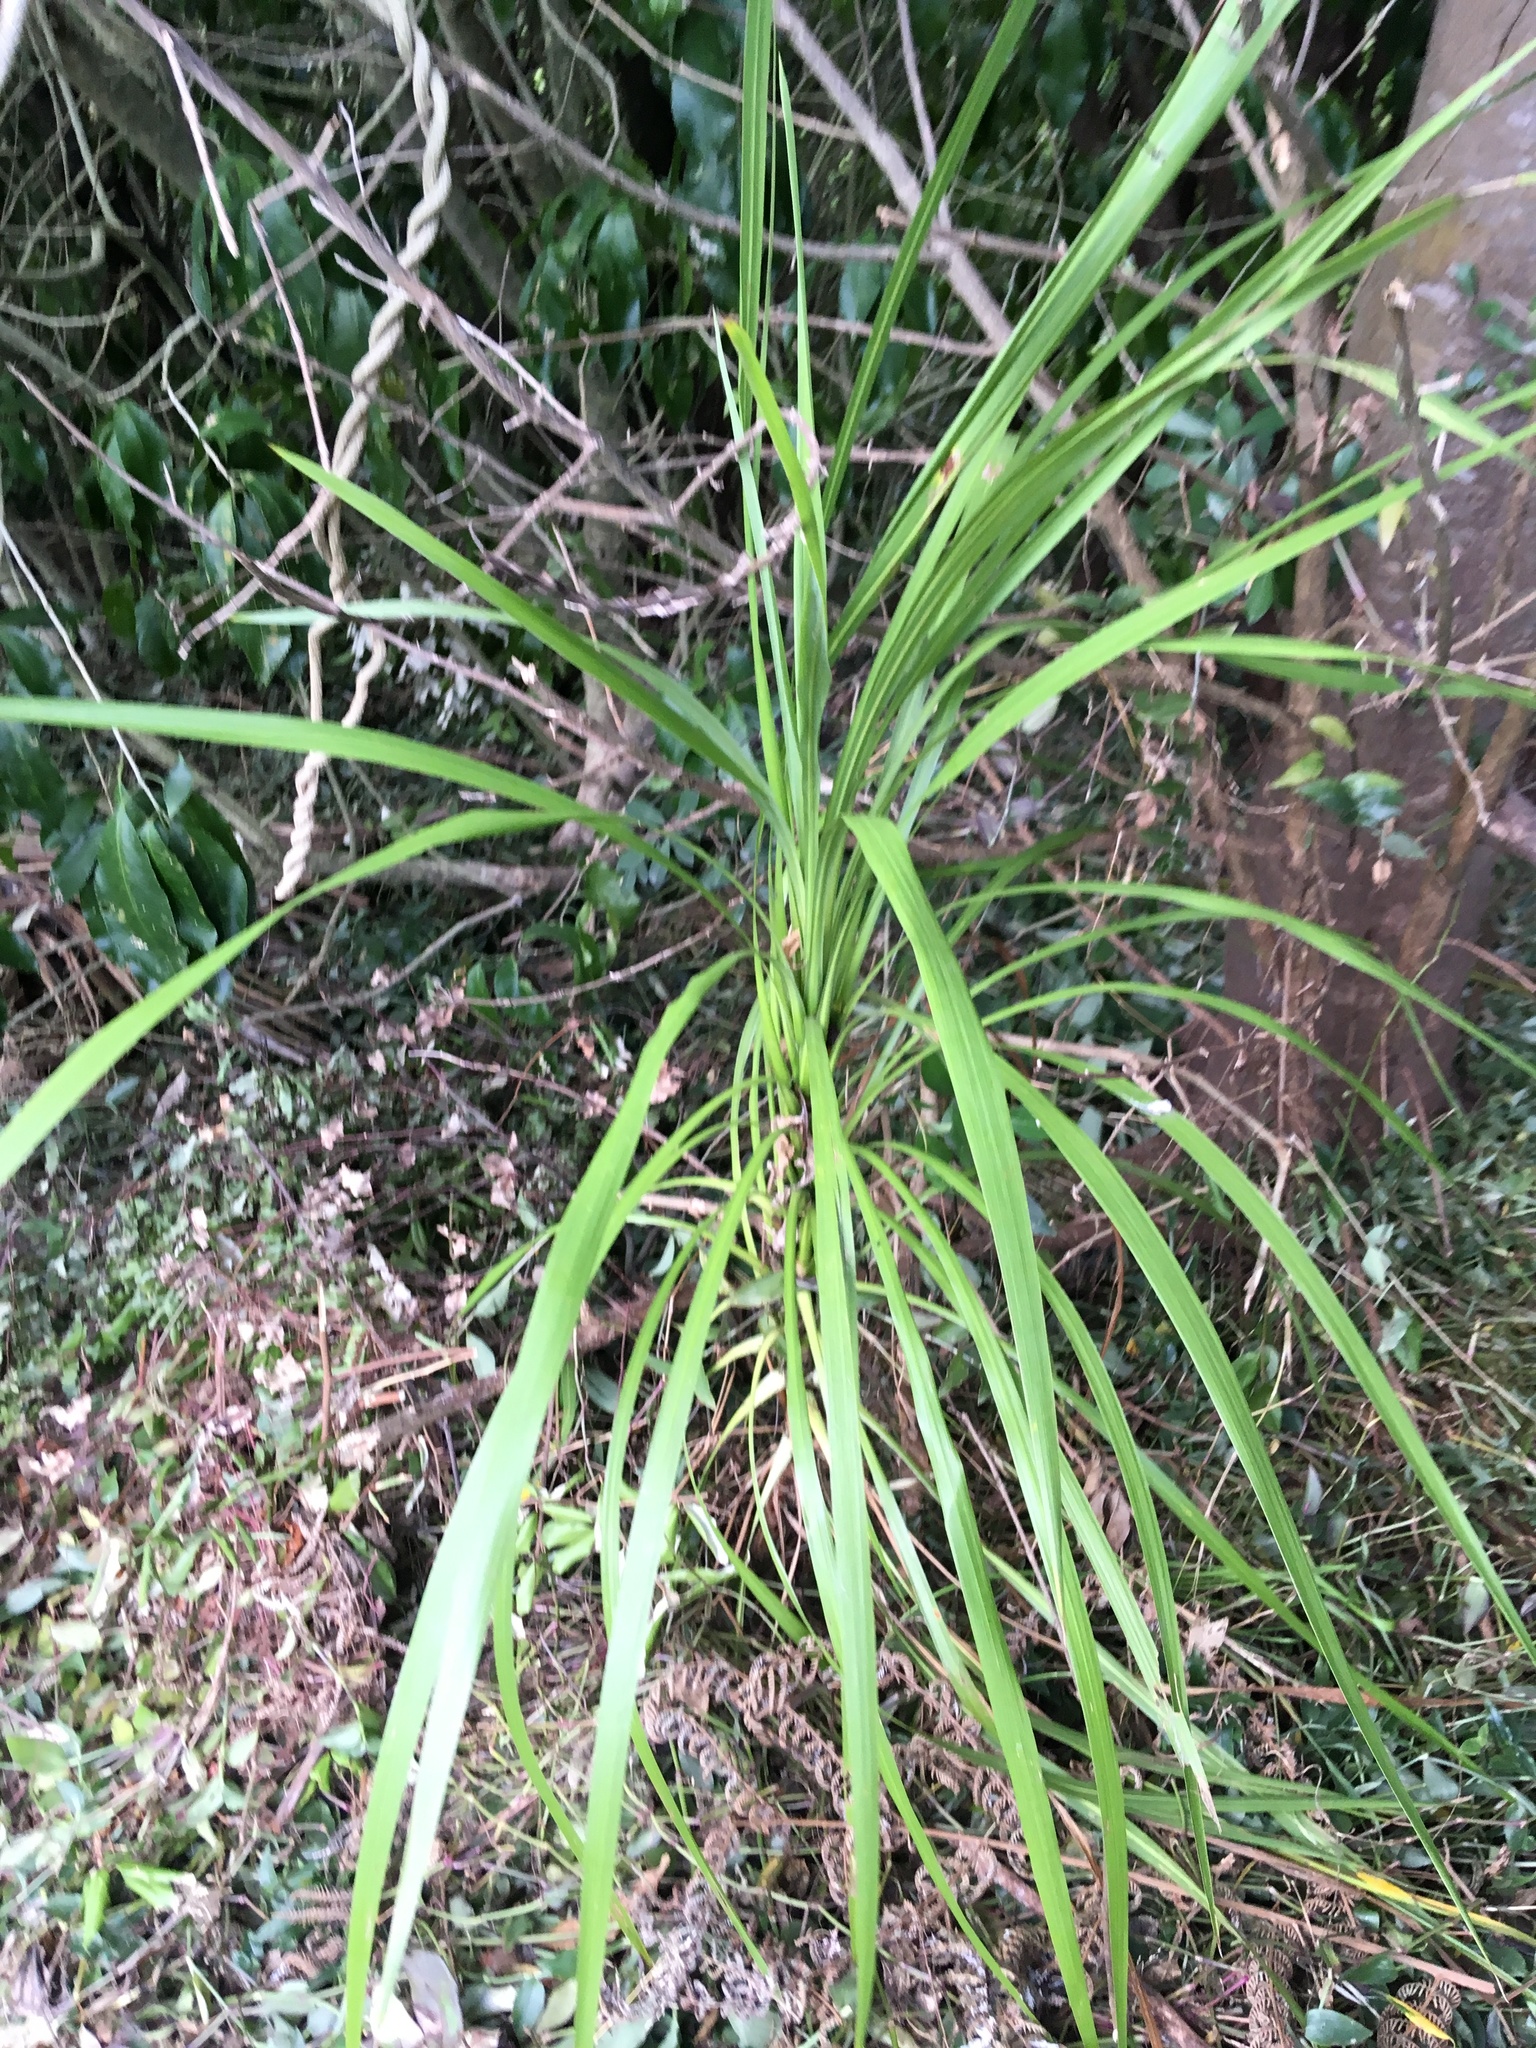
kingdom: Plantae
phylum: Tracheophyta
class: Liliopsida
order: Asparagales
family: Asparagaceae
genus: Cordyline
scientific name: Cordyline australis
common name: Cabbage-palm
